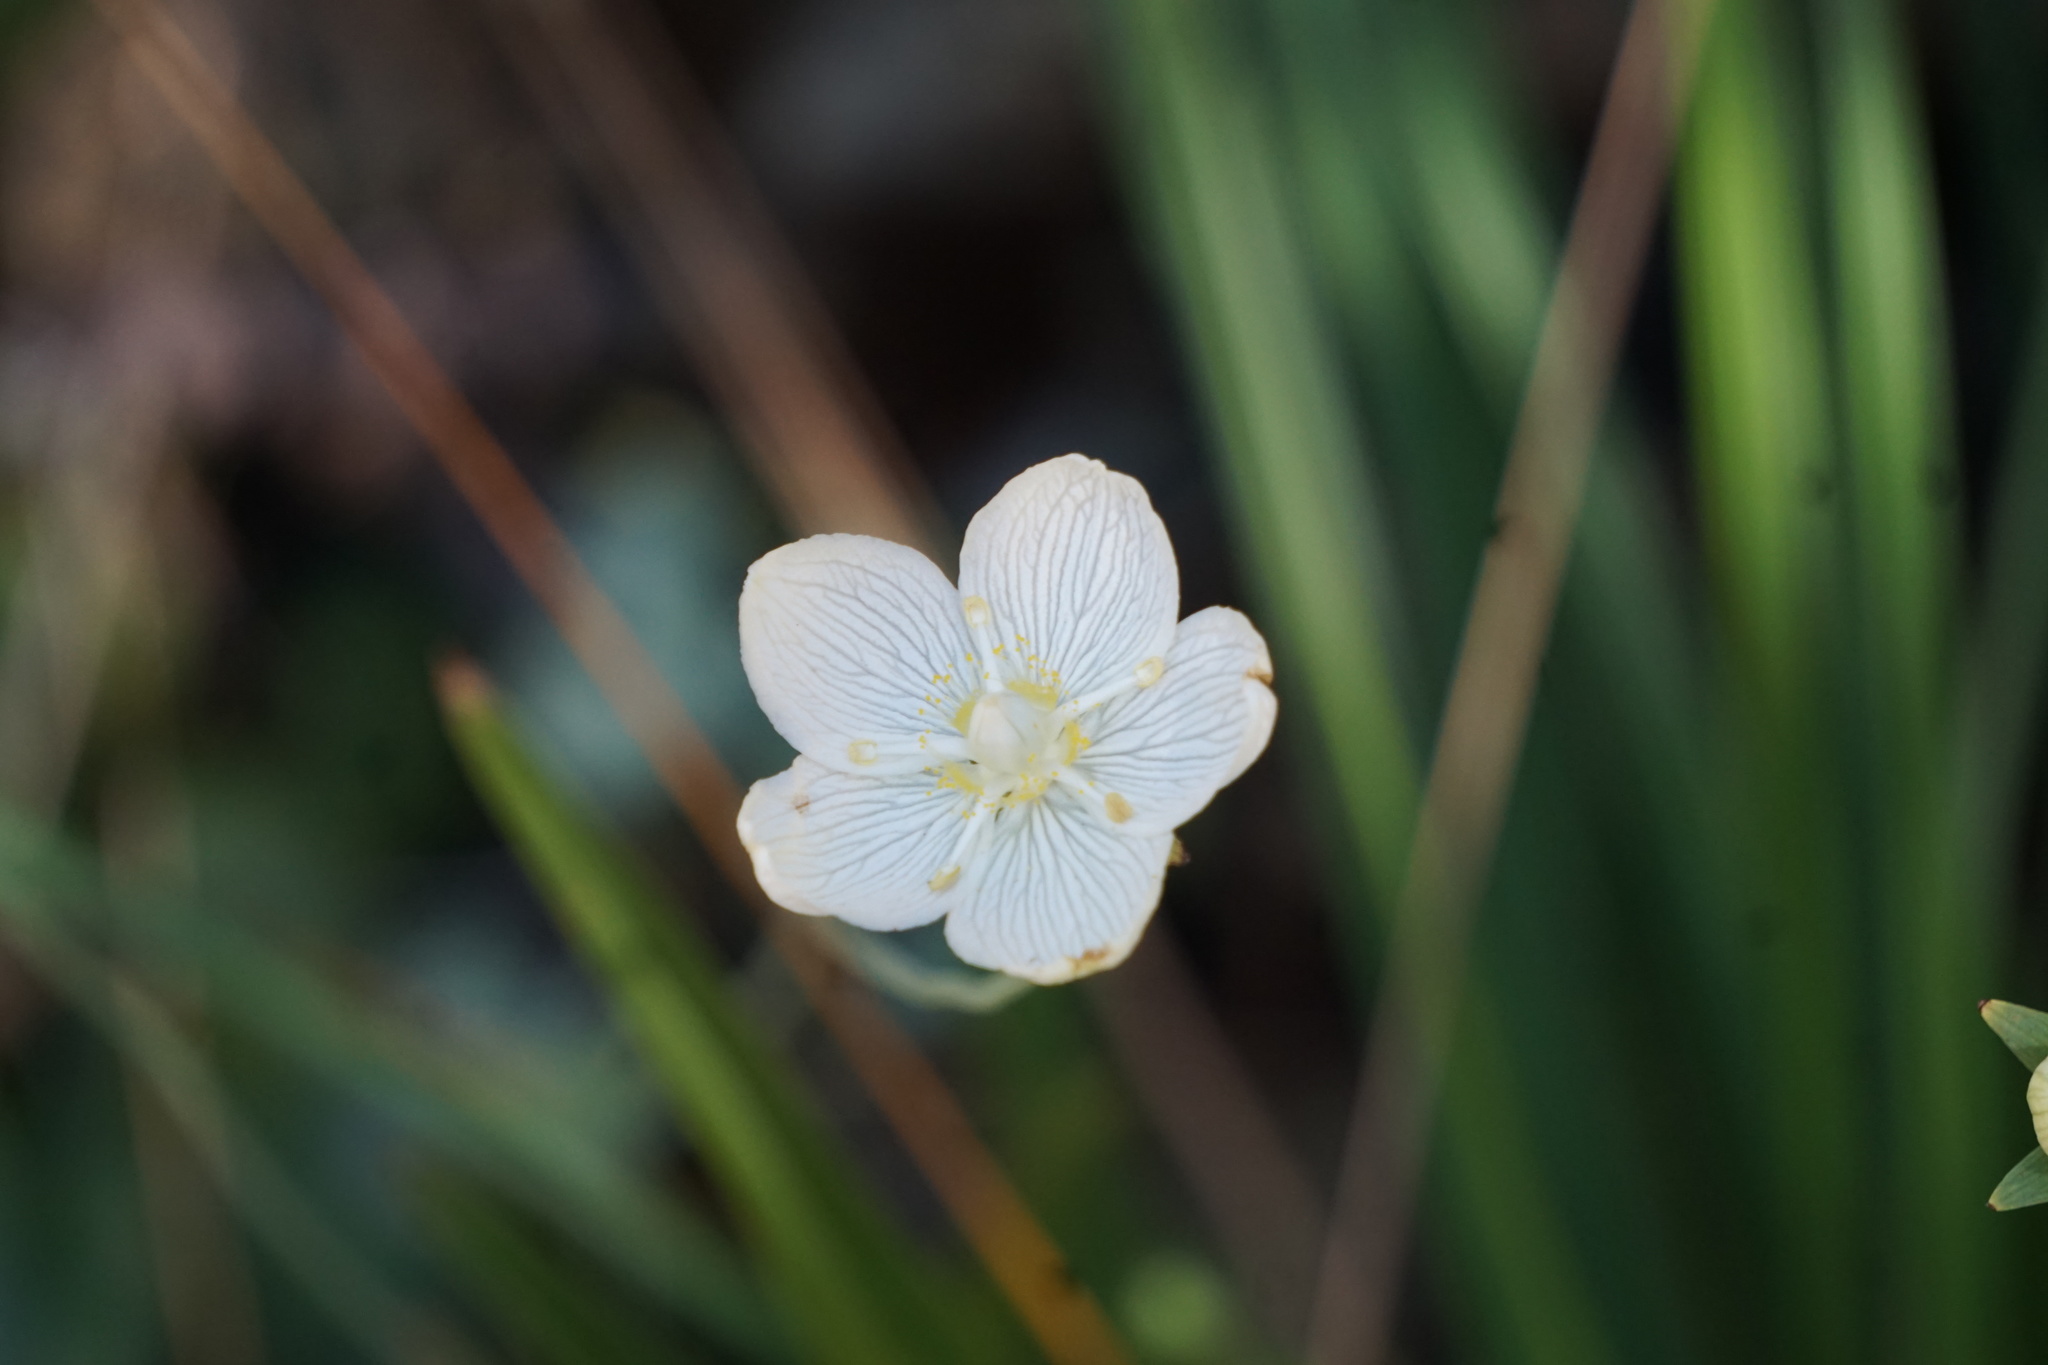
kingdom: Plantae
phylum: Tracheophyta
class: Magnoliopsida
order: Celastrales
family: Parnassiaceae
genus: Parnassia
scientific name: Parnassia palustris
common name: Grass-of-parnassus
